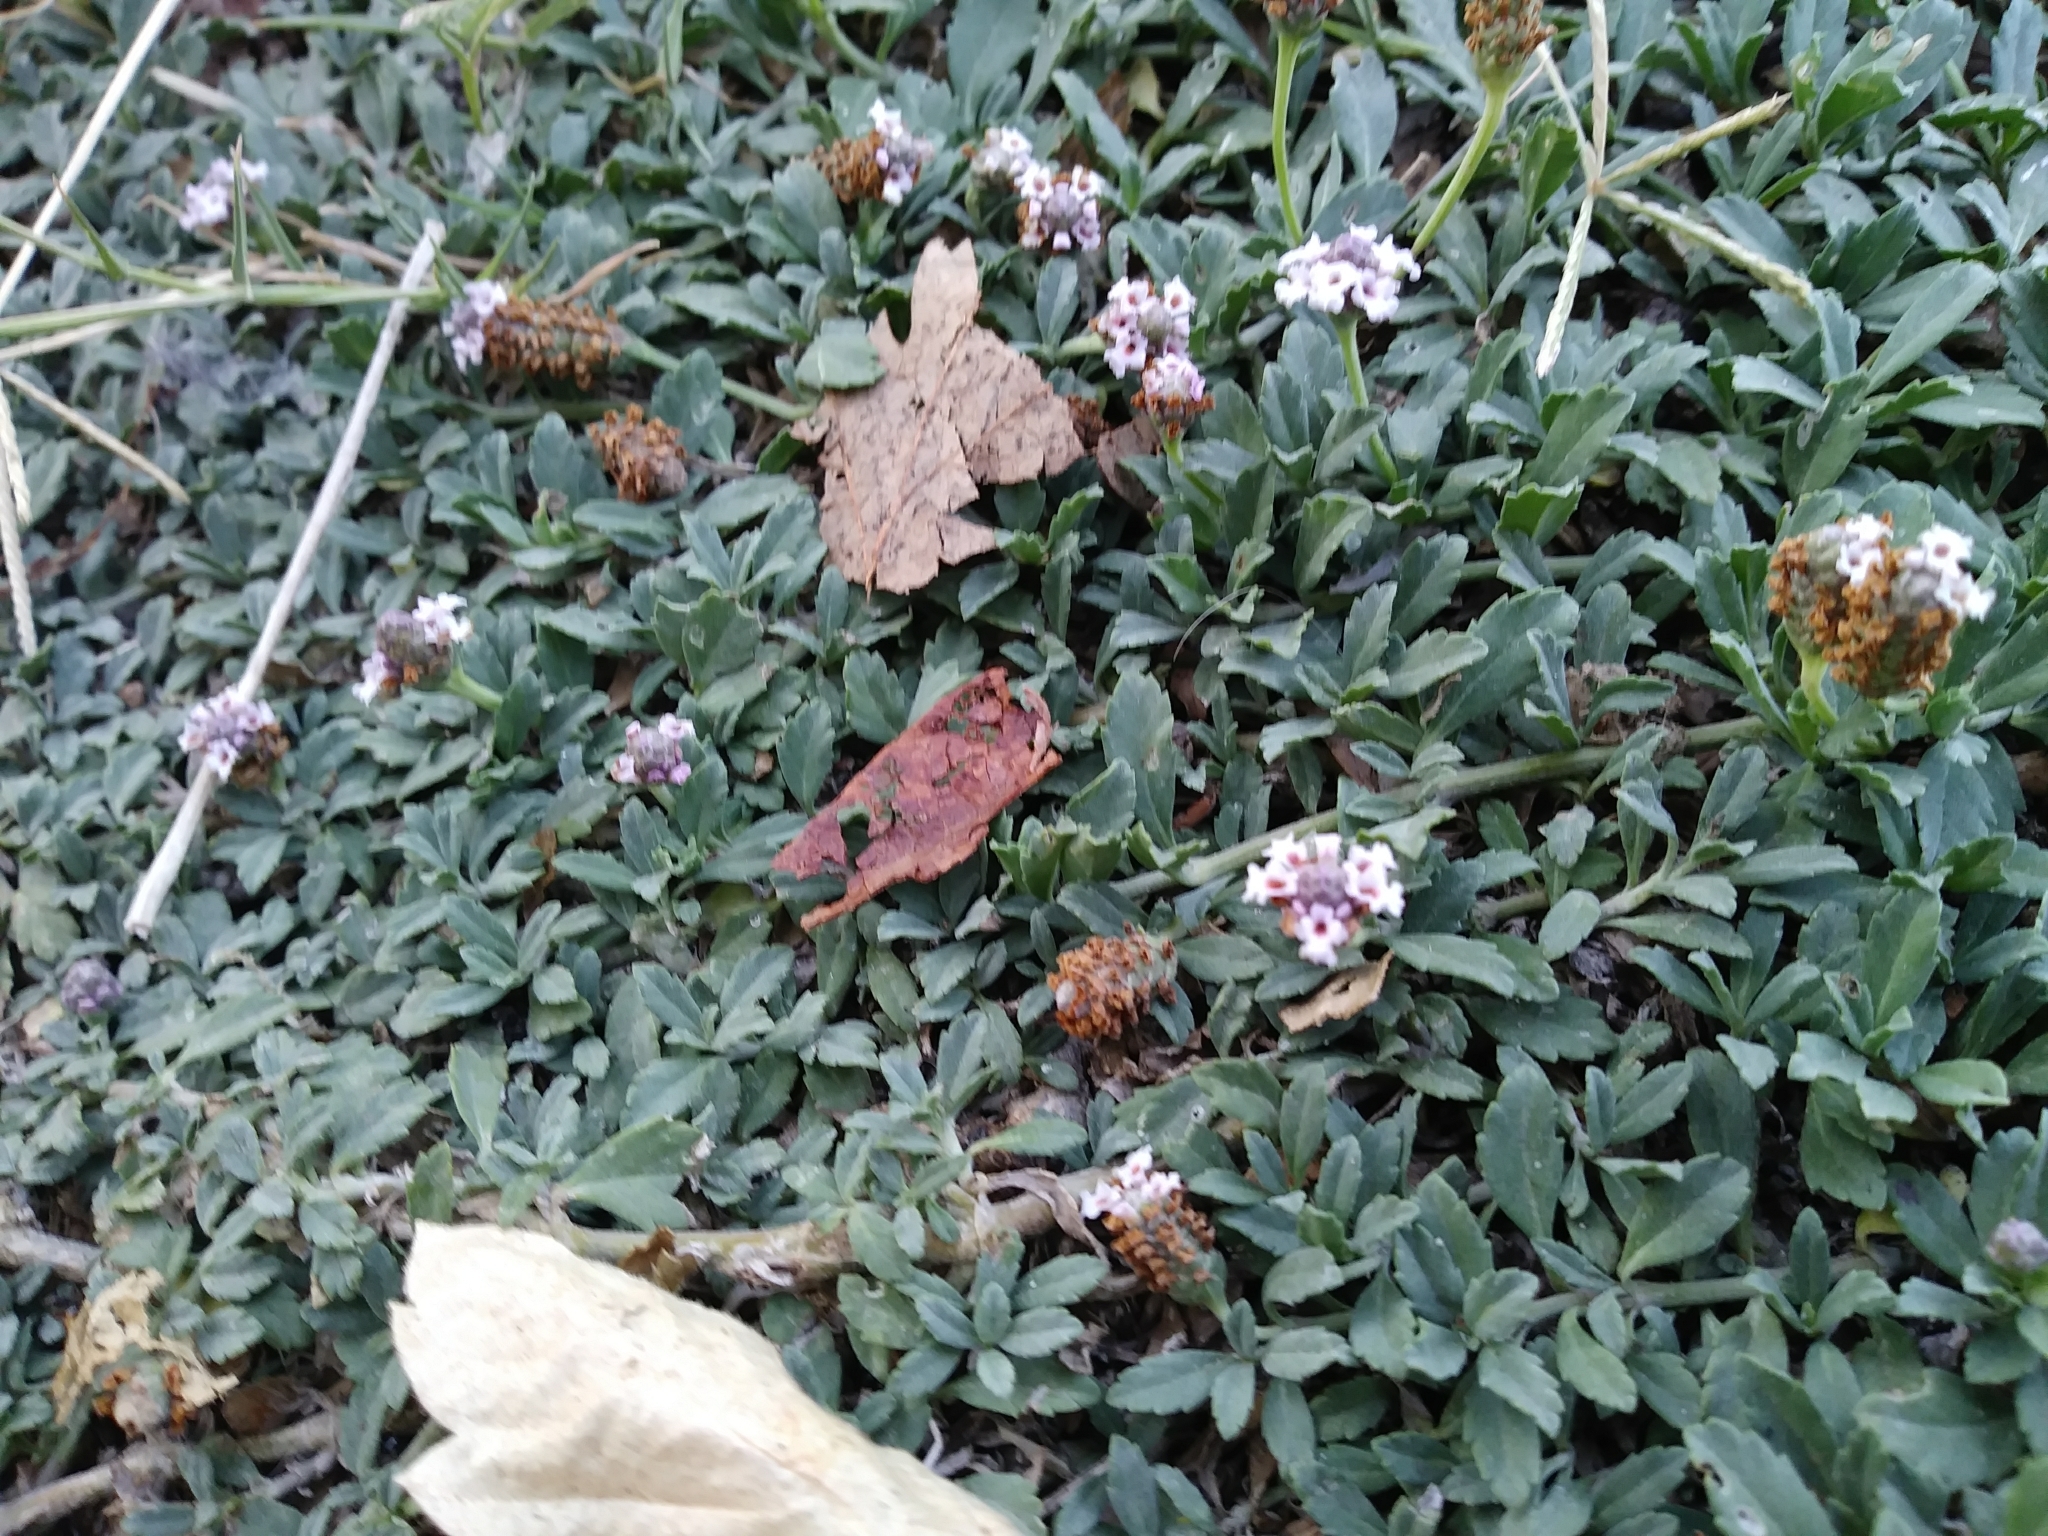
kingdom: Plantae
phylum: Tracheophyta
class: Magnoliopsida
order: Lamiales
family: Verbenaceae
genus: Phyla
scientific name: Phyla nodiflora
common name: Frogfruit
